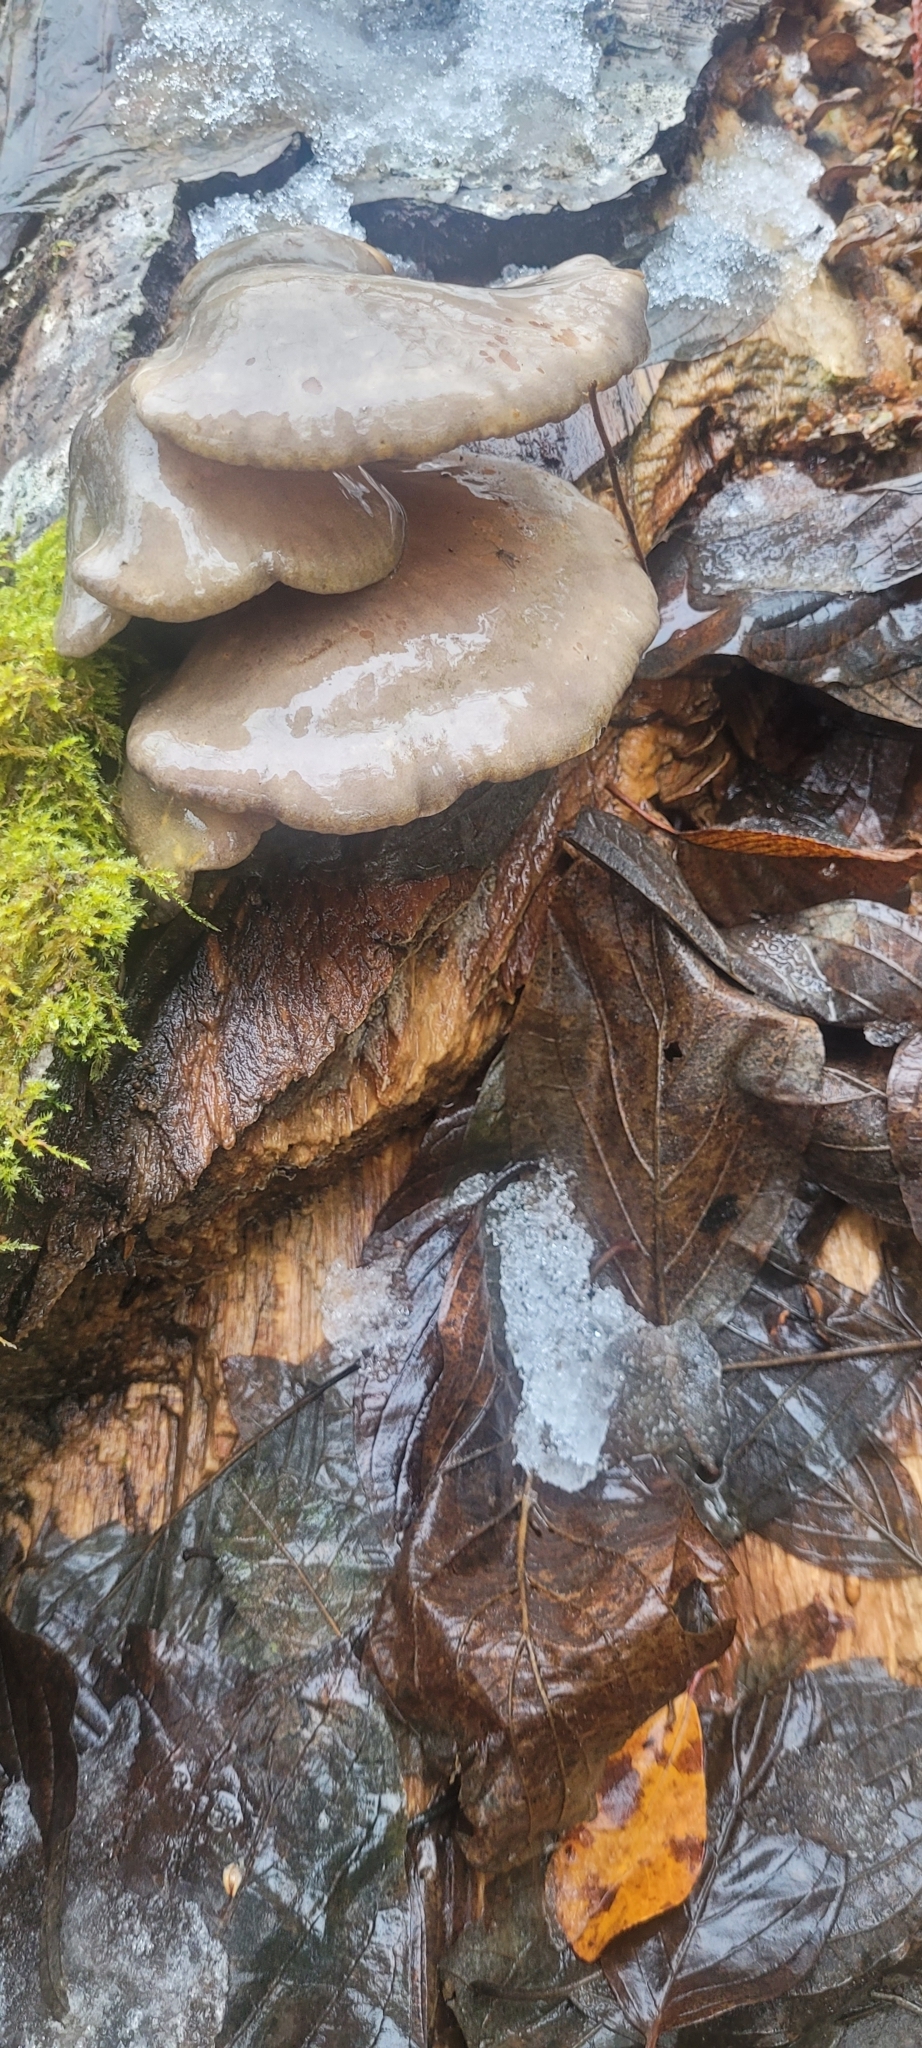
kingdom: Fungi
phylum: Basidiomycota
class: Agaricomycetes
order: Agaricales
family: Sarcomyxaceae
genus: Sarcomyxa
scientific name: Sarcomyxa serotina
